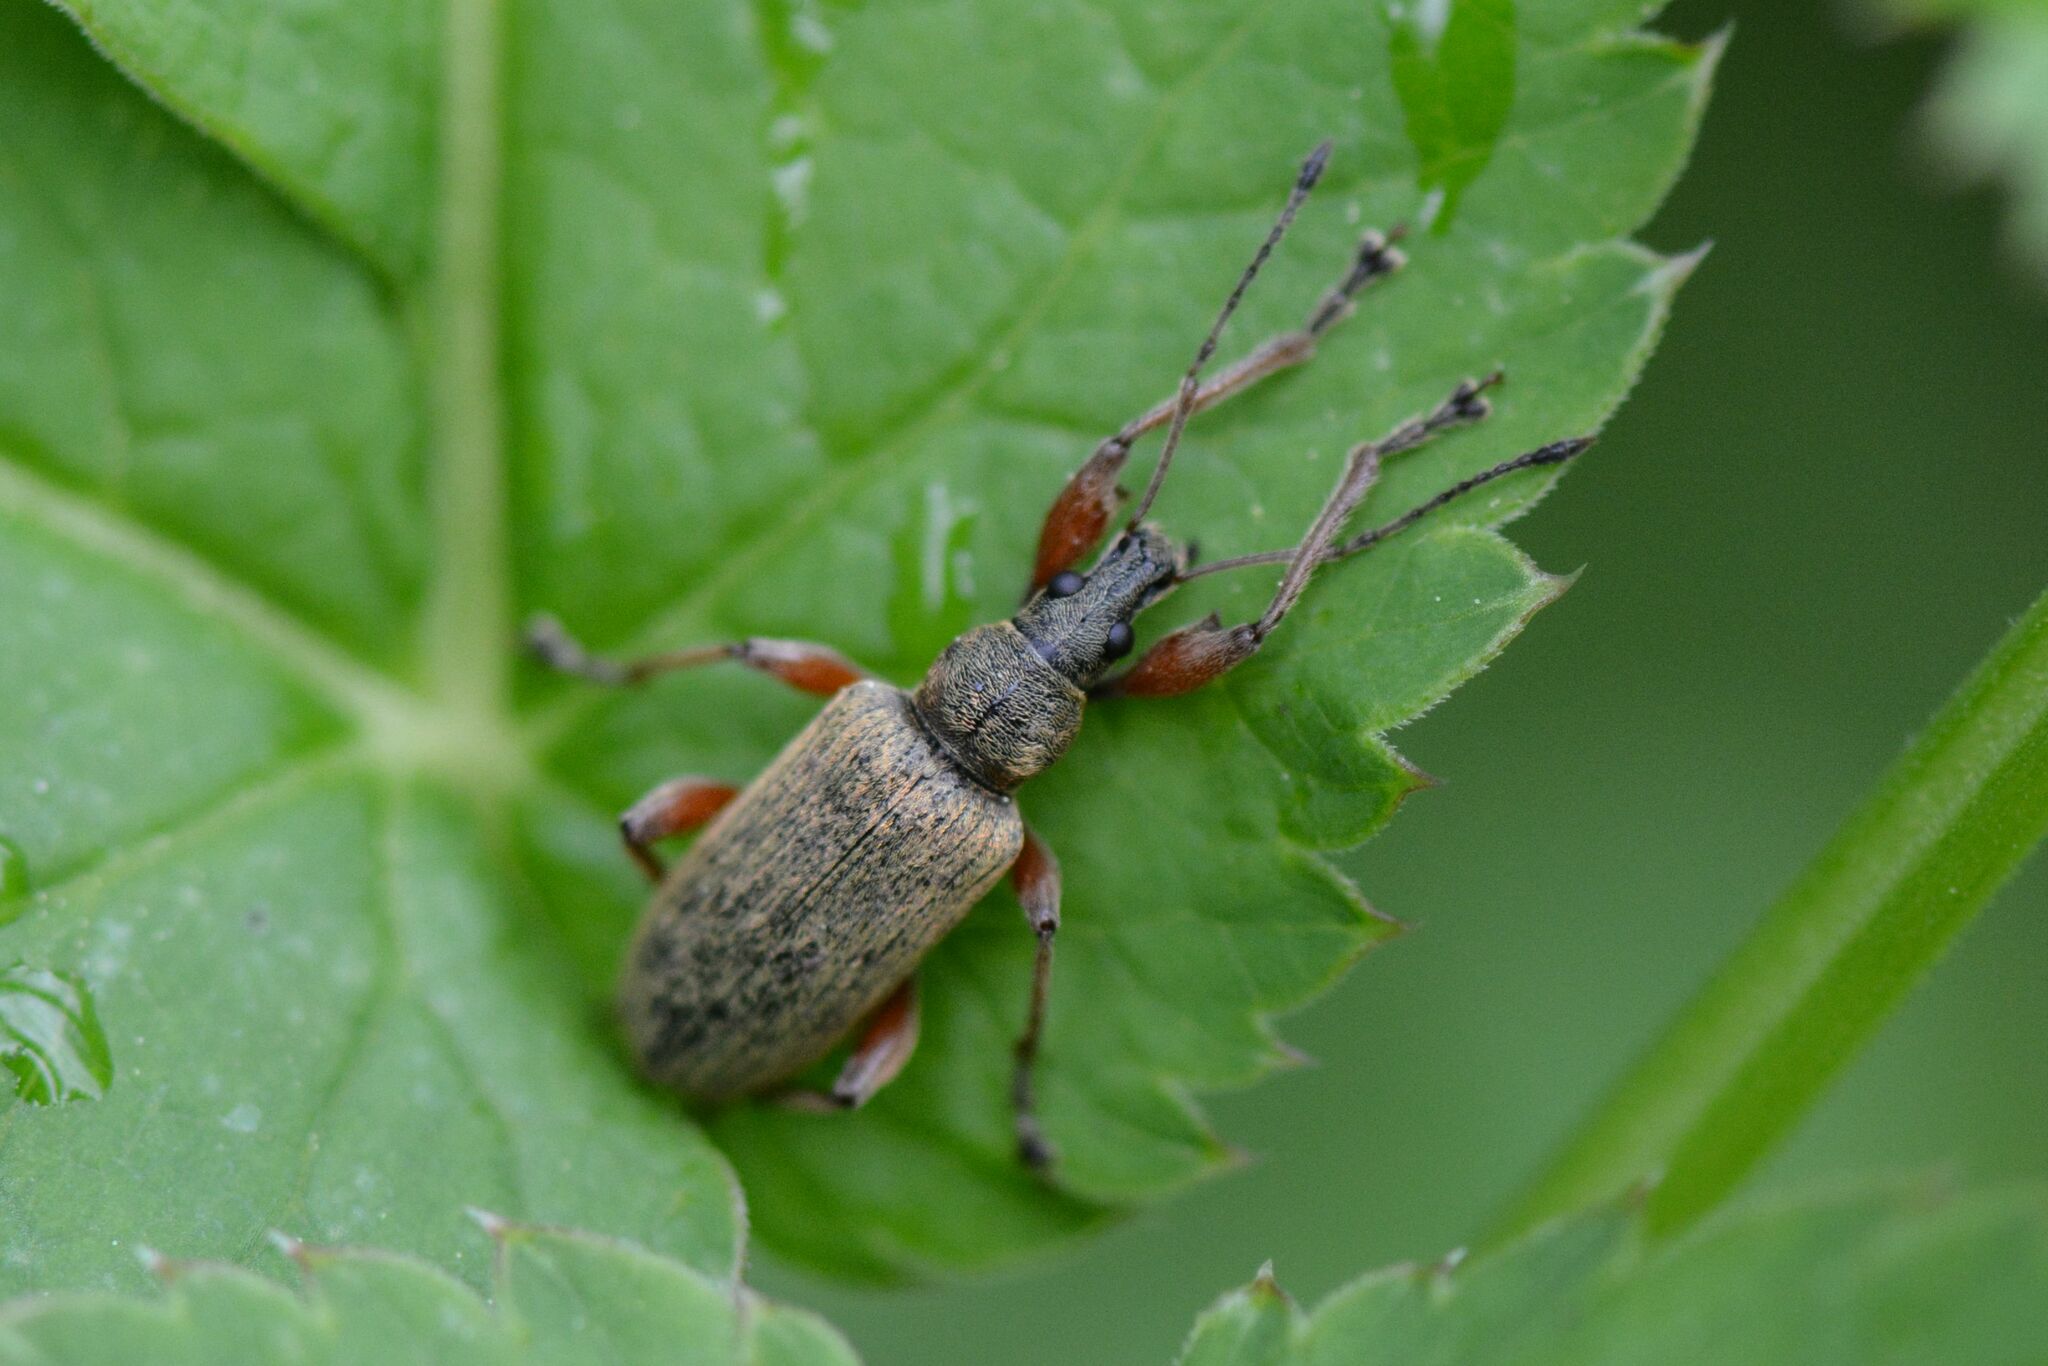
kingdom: Animalia
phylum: Arthropoda
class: Insecta
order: Coleoptera
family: Curculionidae
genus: Phyllobius
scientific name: Phyllobius glaucus
